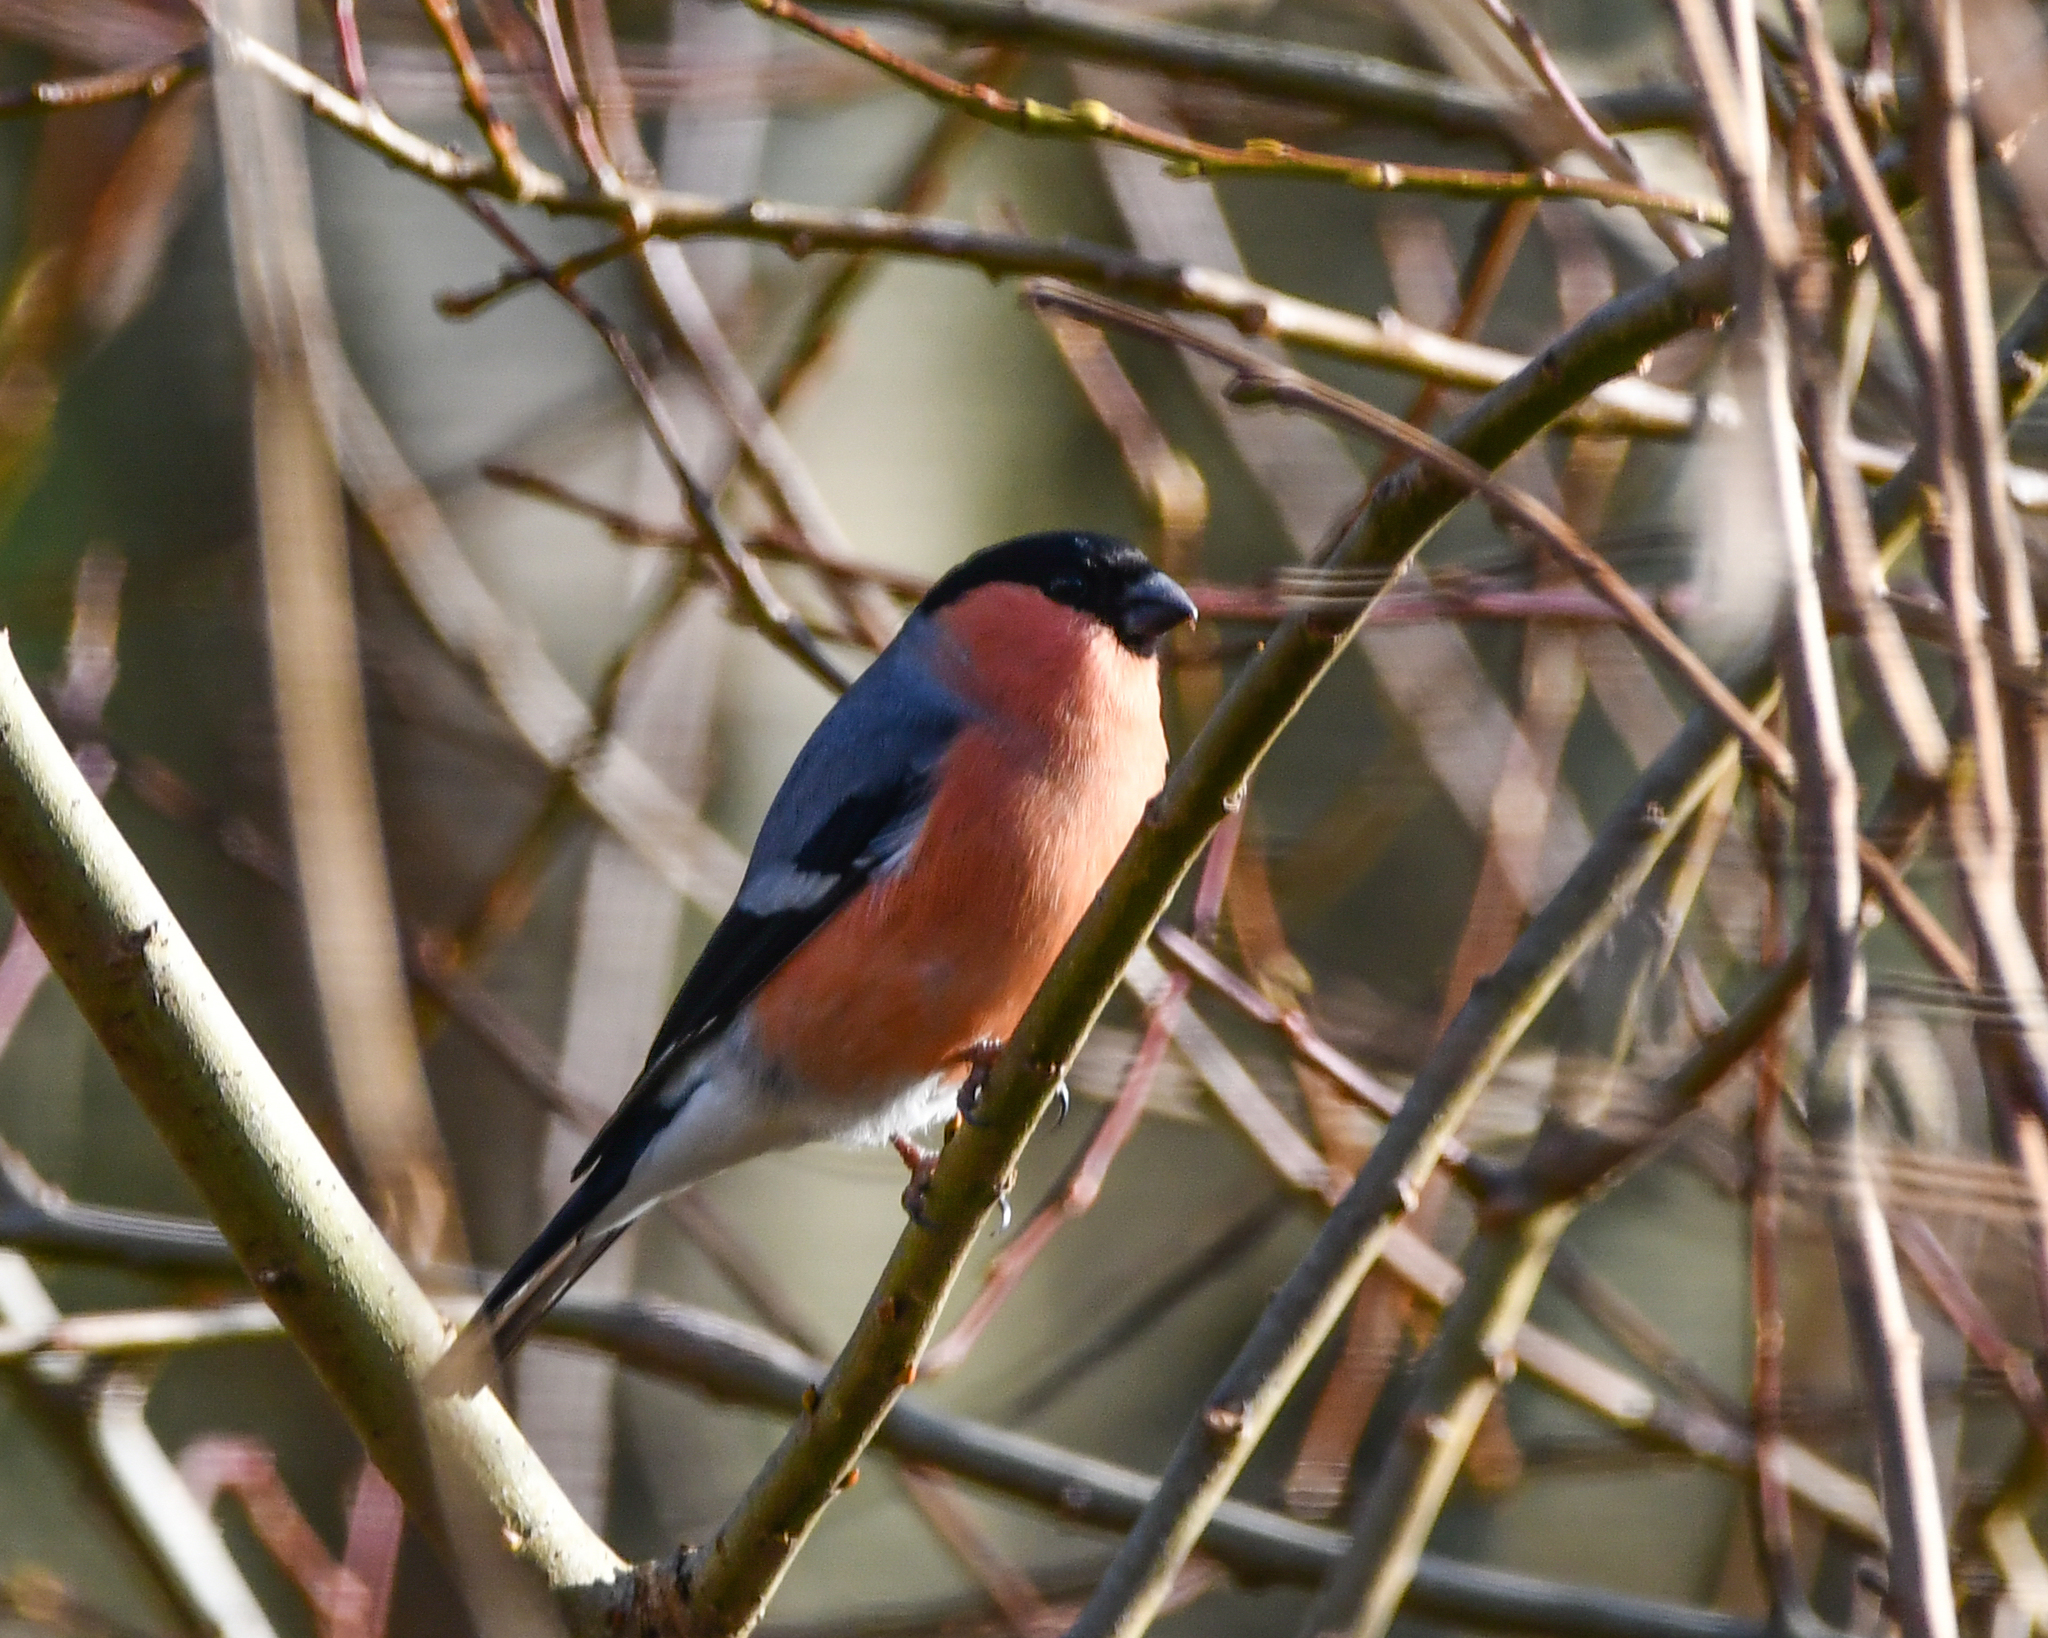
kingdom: Animalia
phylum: Chordata
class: Aves
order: Passeriformes
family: Fringillidae
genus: Pyrrhula
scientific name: Pyrrhula pyrrhula
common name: Eurasian bullfinch
